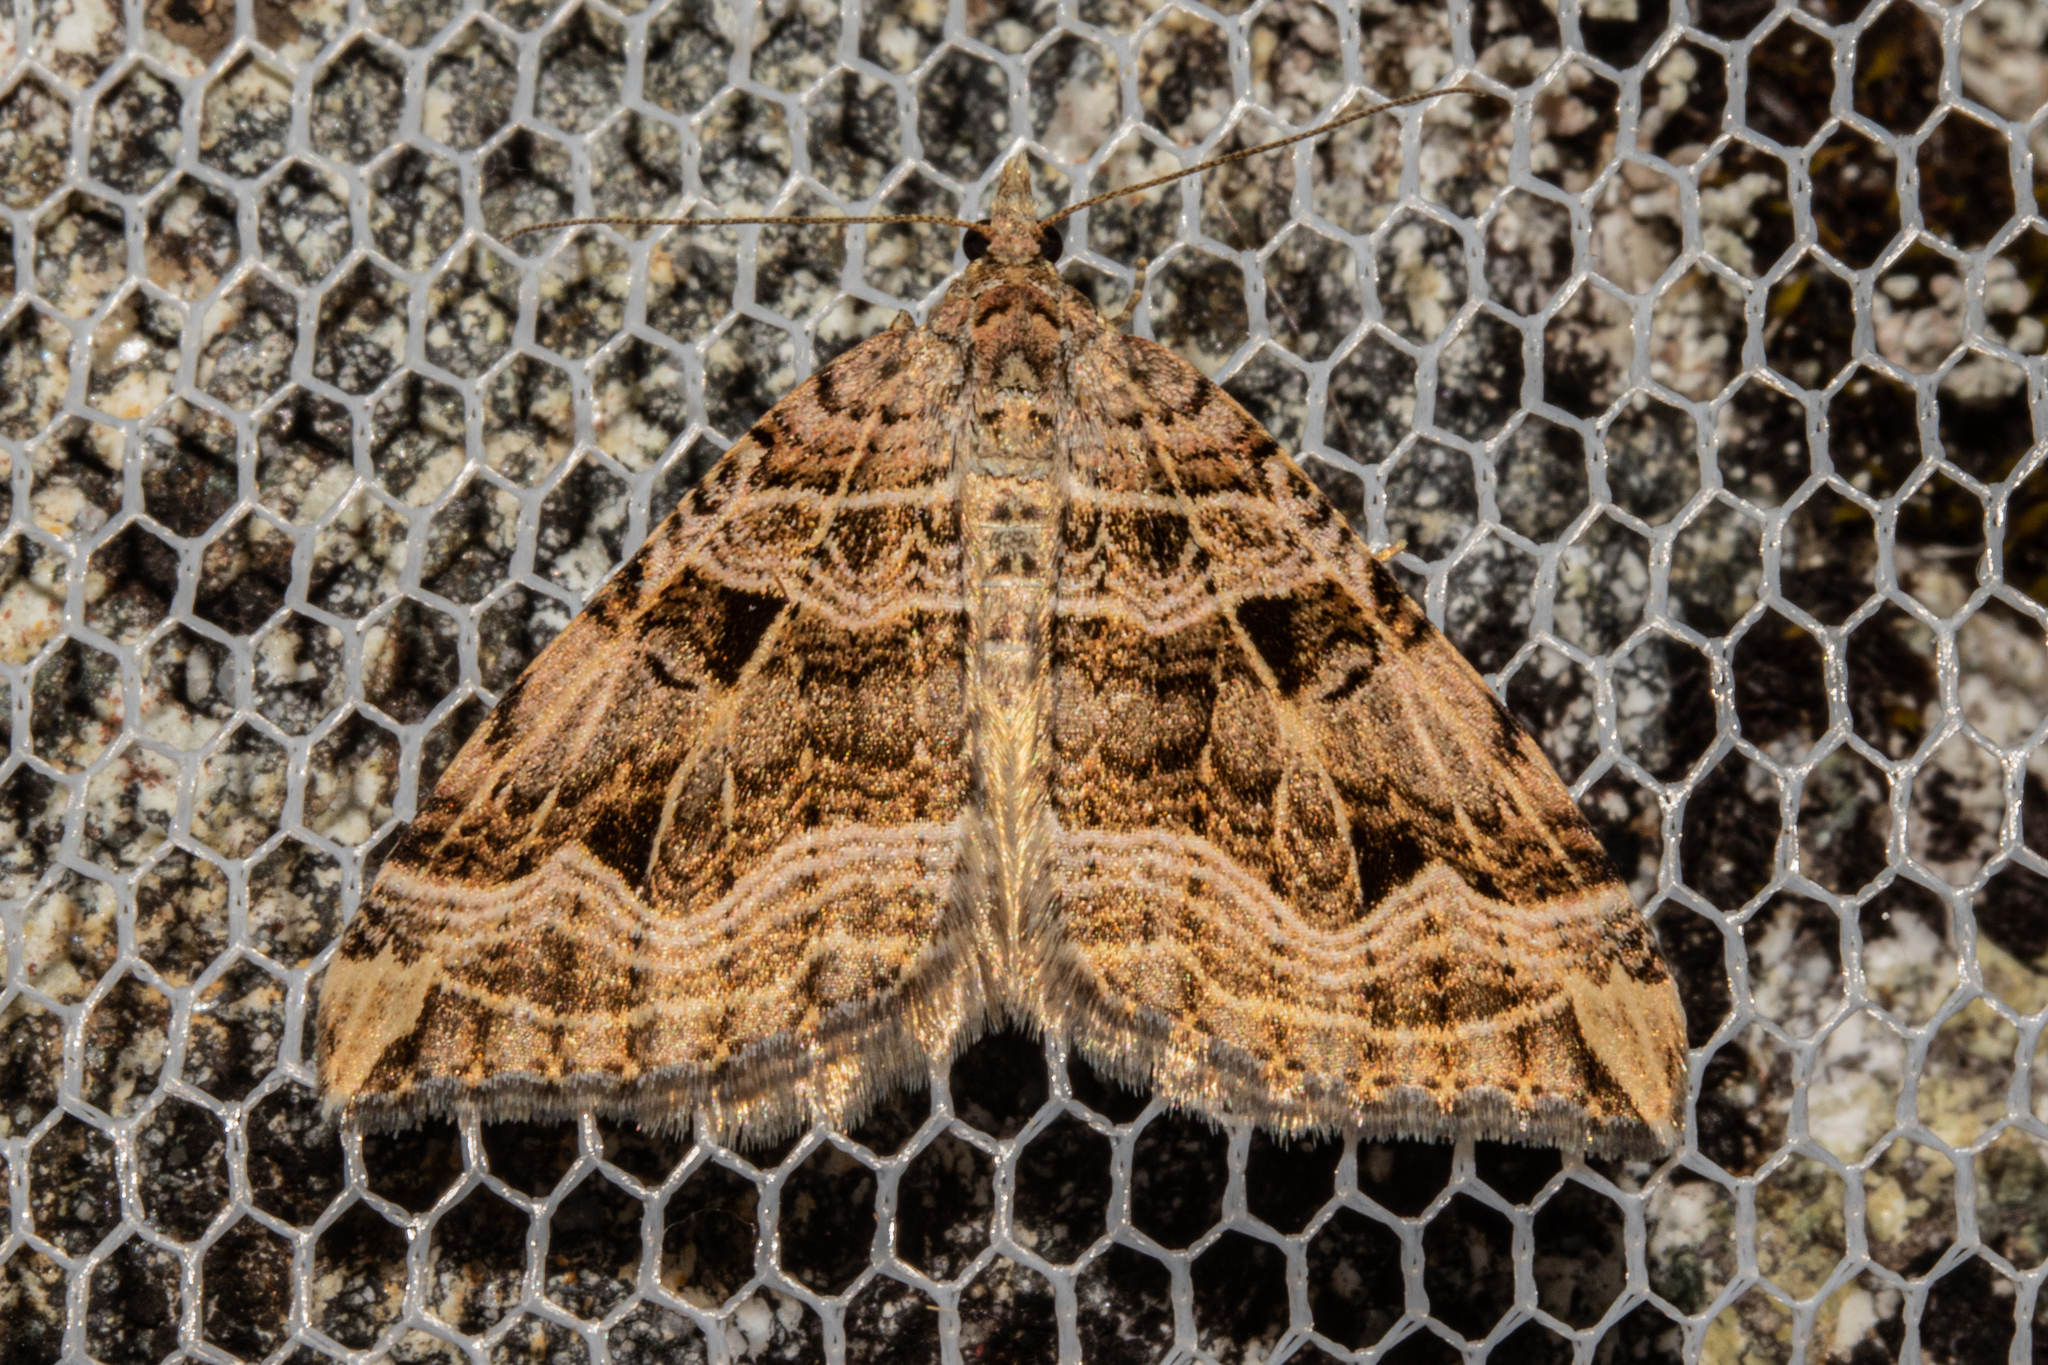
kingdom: Animalia
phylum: Arthropoda
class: Insecta
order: Lepidoptera
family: Geometridae
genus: Xanthorhoe
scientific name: Xanthorhoe semifissata
